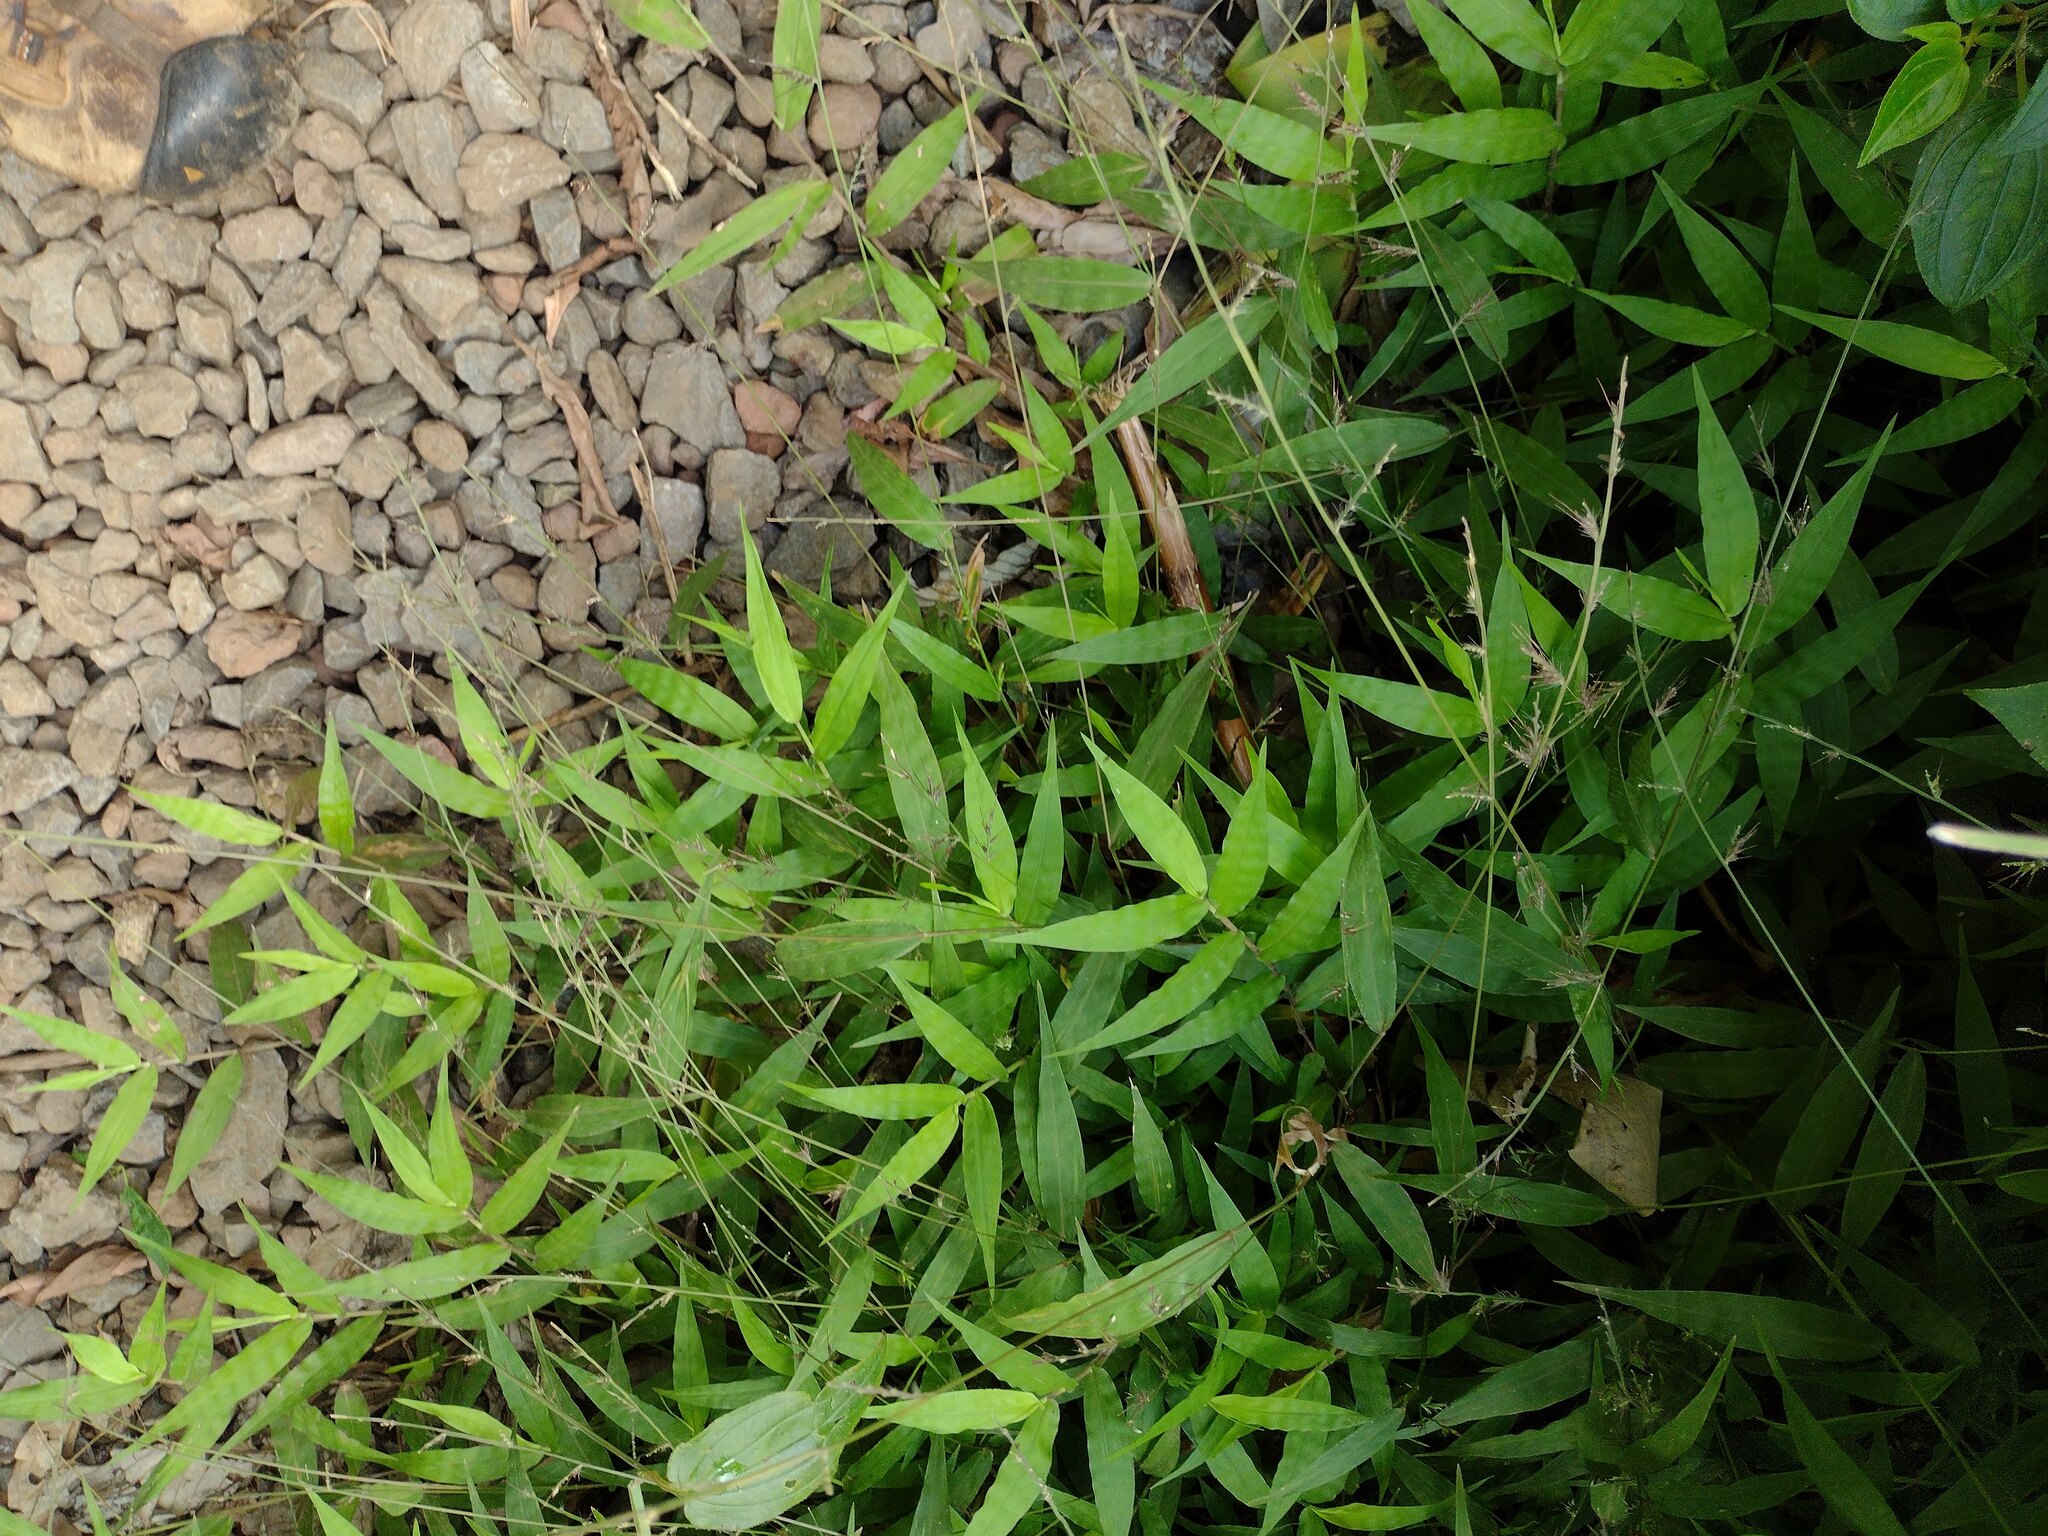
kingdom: Plantae
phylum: Tracheophyta
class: Liliopsida
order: Poales
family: Poaceae
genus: Oplismenus
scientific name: Oplismenus hirtellus
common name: Basketgrass
